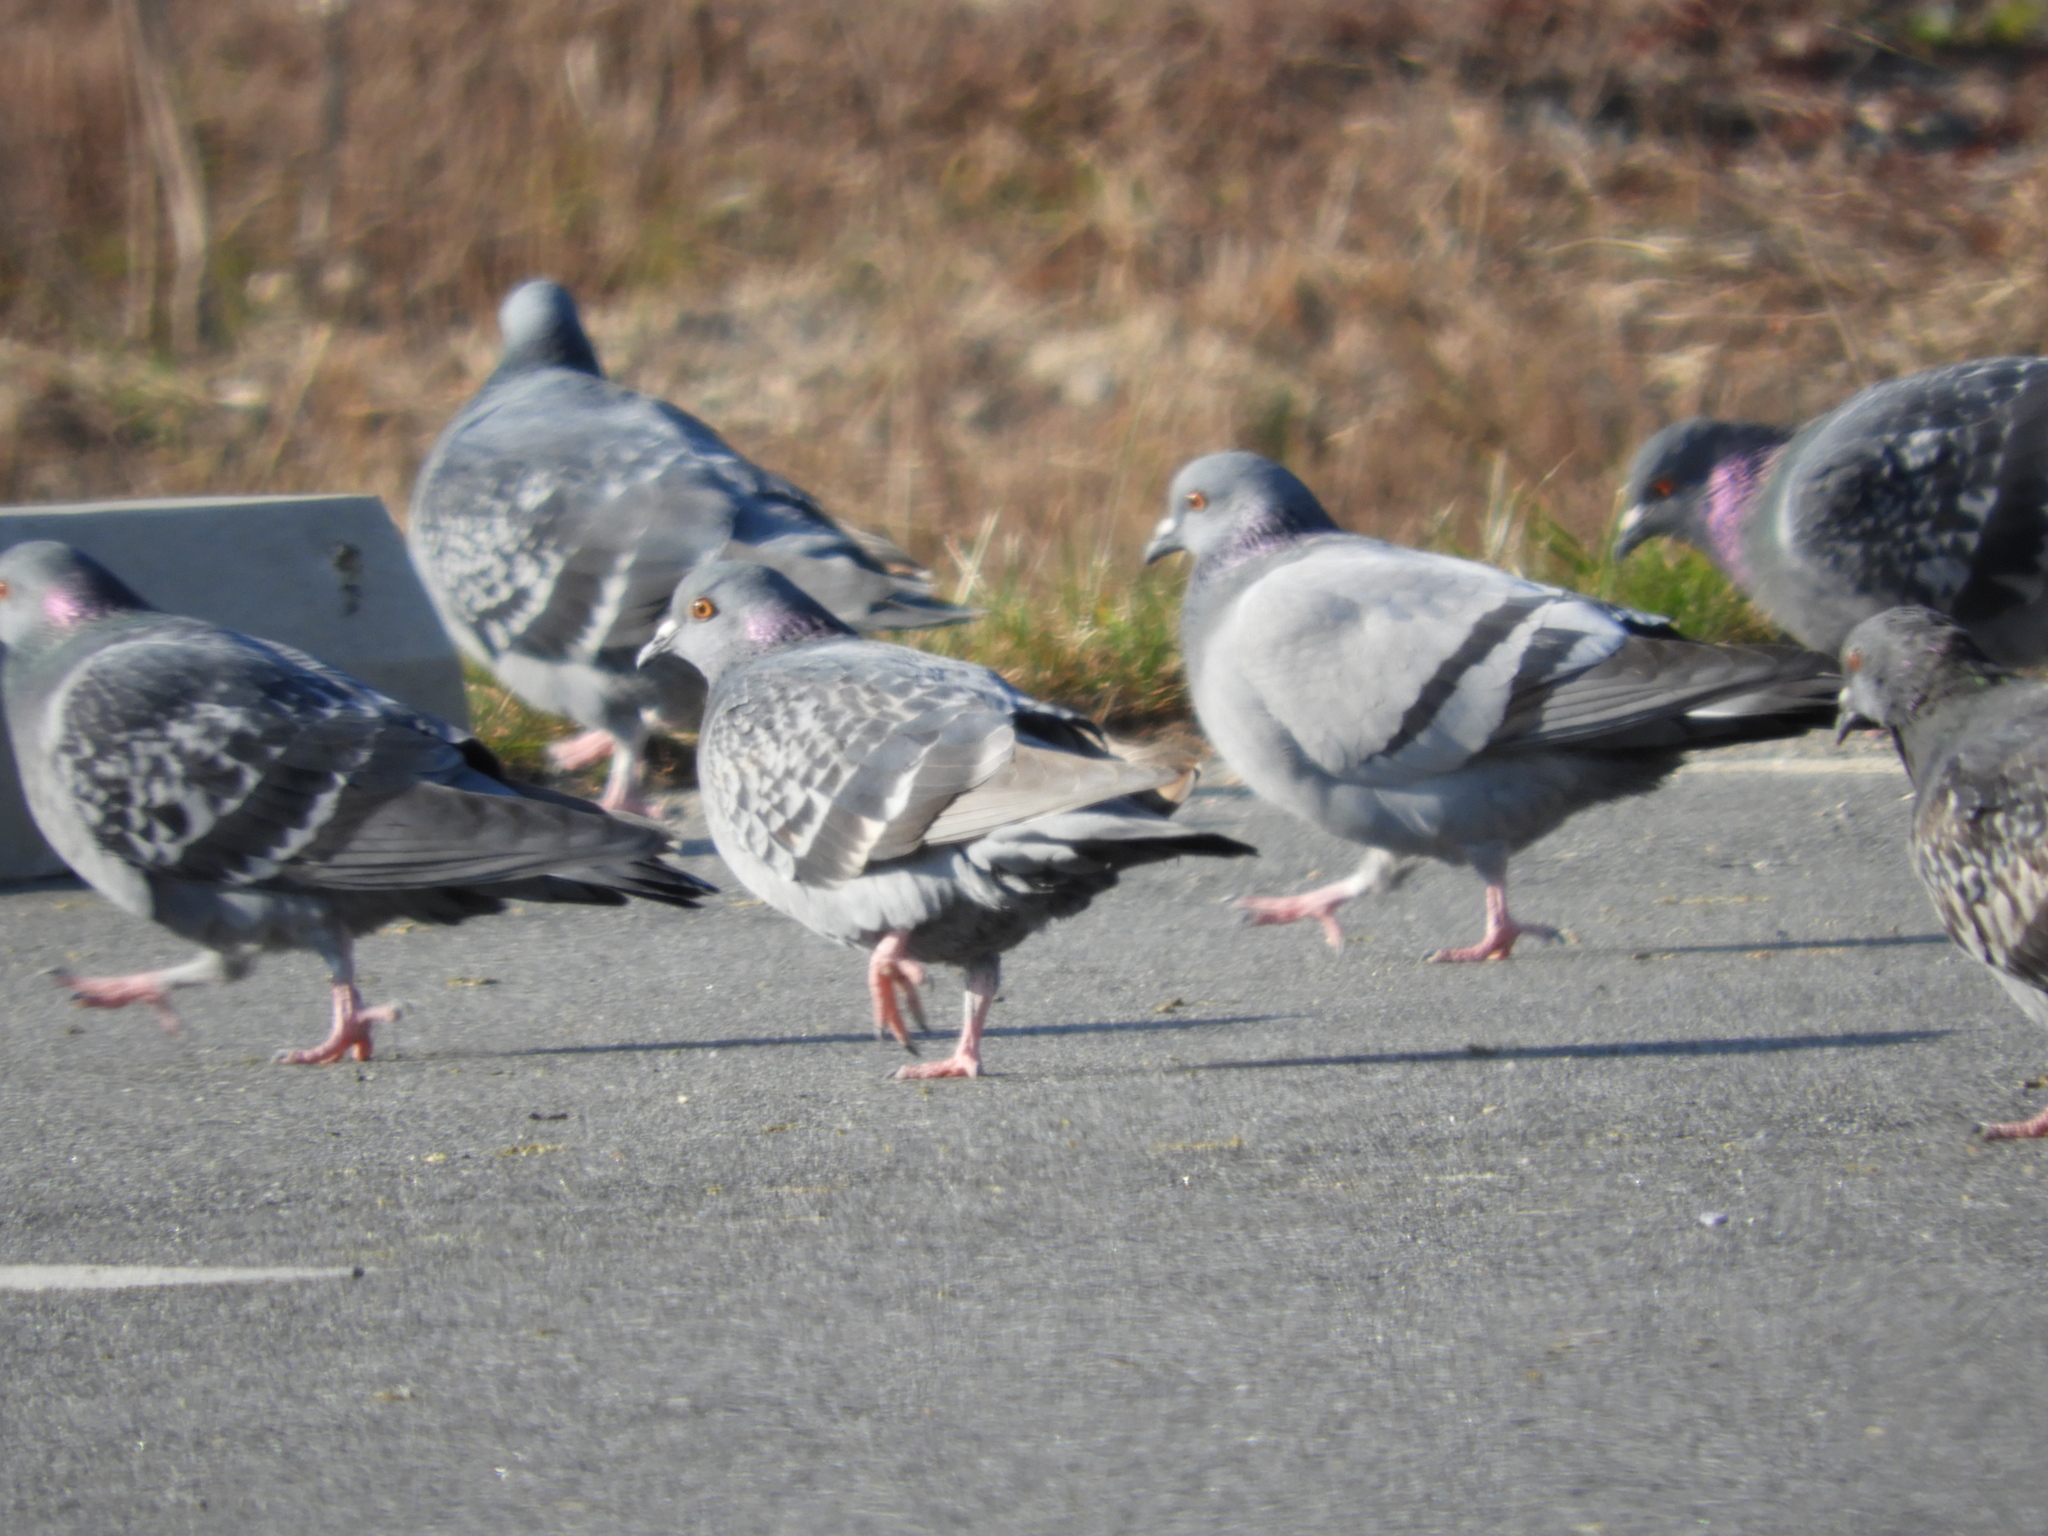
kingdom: Animalia
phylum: Chordata
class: Aves
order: Columbiformes
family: Columbidae
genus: Columba
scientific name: Columba livia
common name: Rock pigeon
